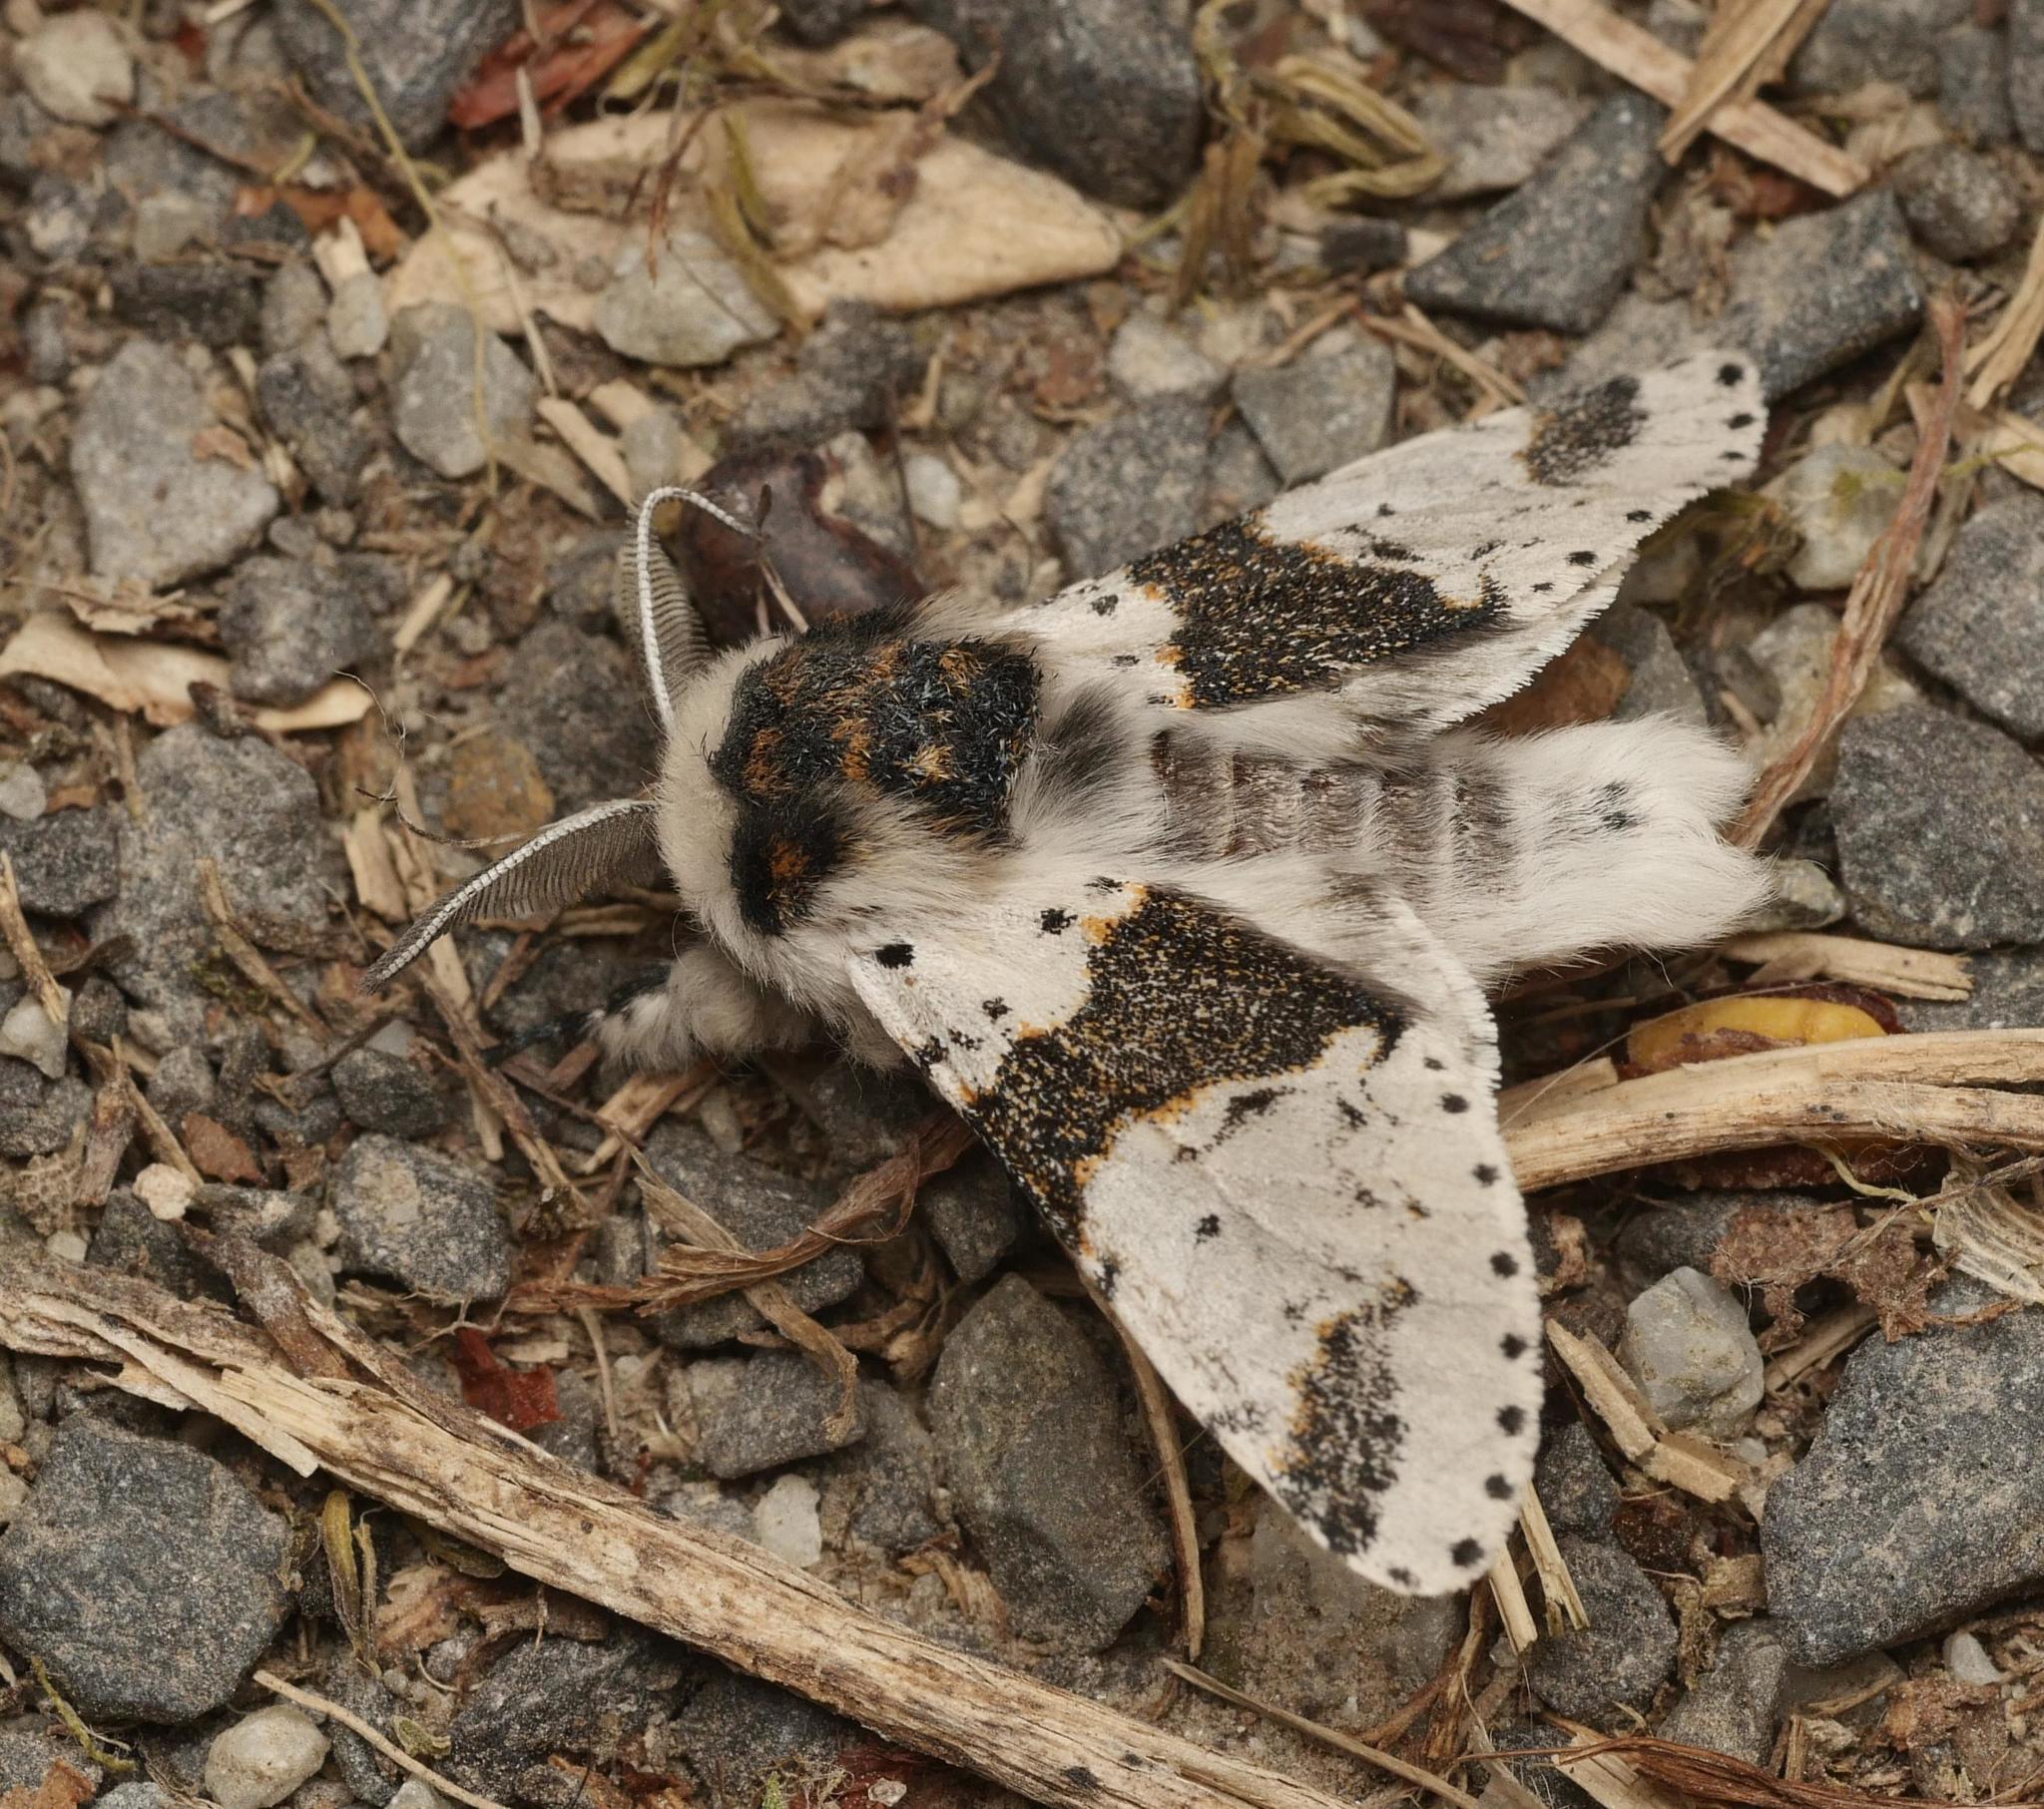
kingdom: Animalia
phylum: Arthropoda
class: Insecta
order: Lepidoptera
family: Notodontidae
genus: Furcula
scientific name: Furcula bicuspis
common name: Alder kitten
